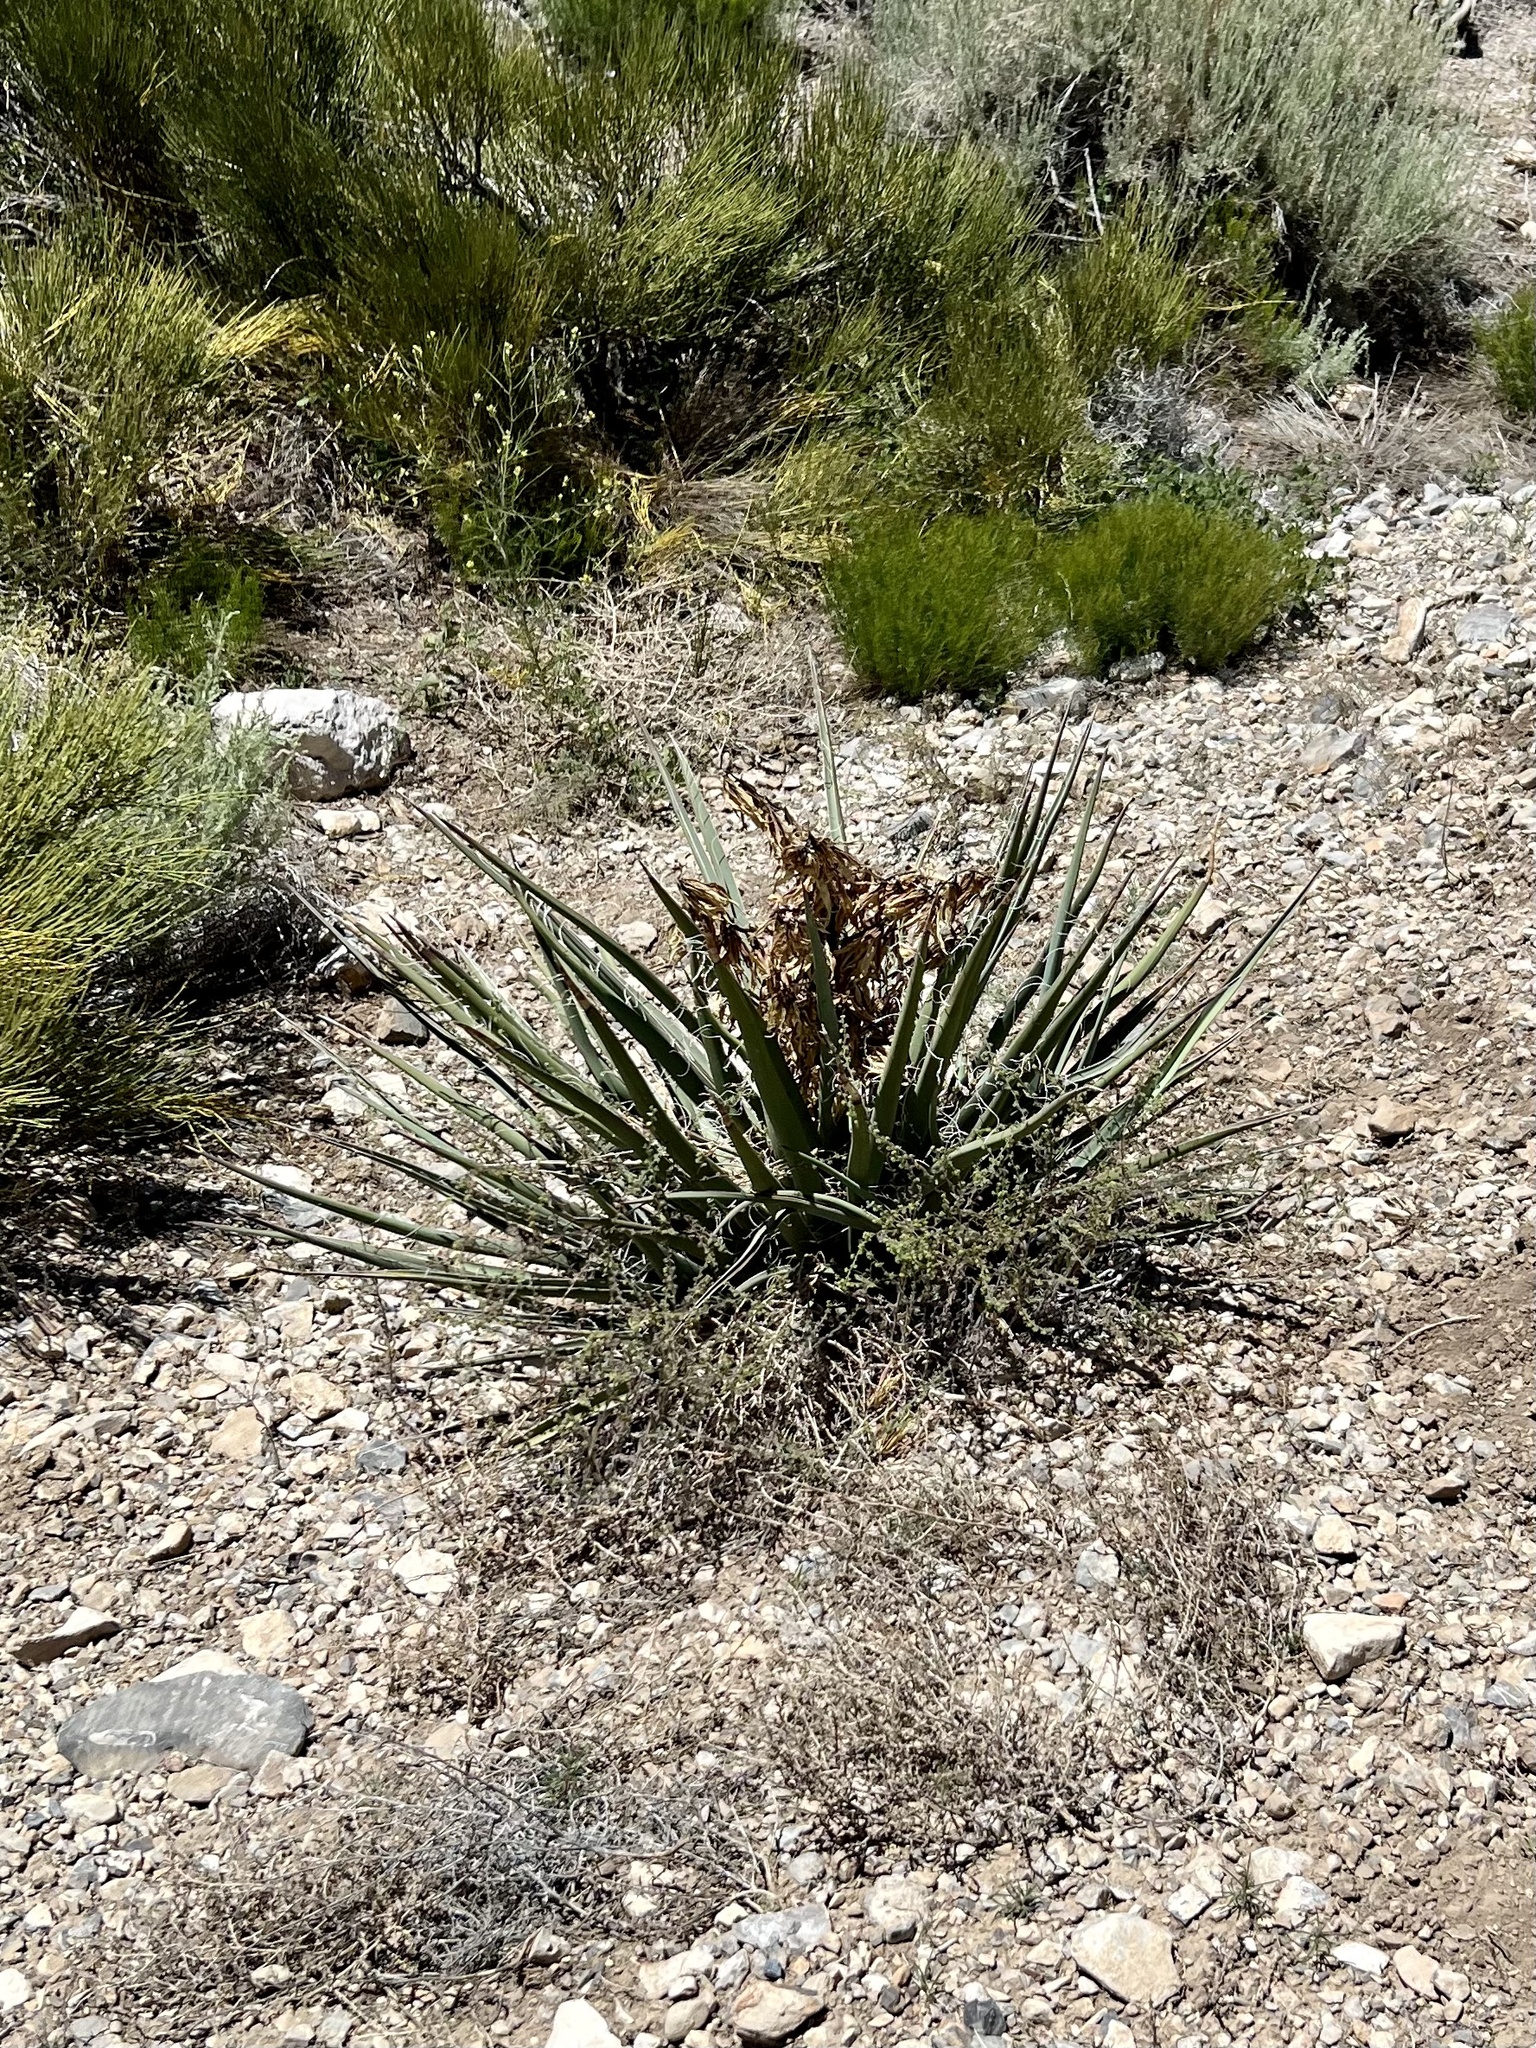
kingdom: Plantae
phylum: Tracheophyta
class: Liliopsida
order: Asparagales
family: Asparagaceae
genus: Yucca
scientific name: Yucca baccata
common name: Banana yucca
